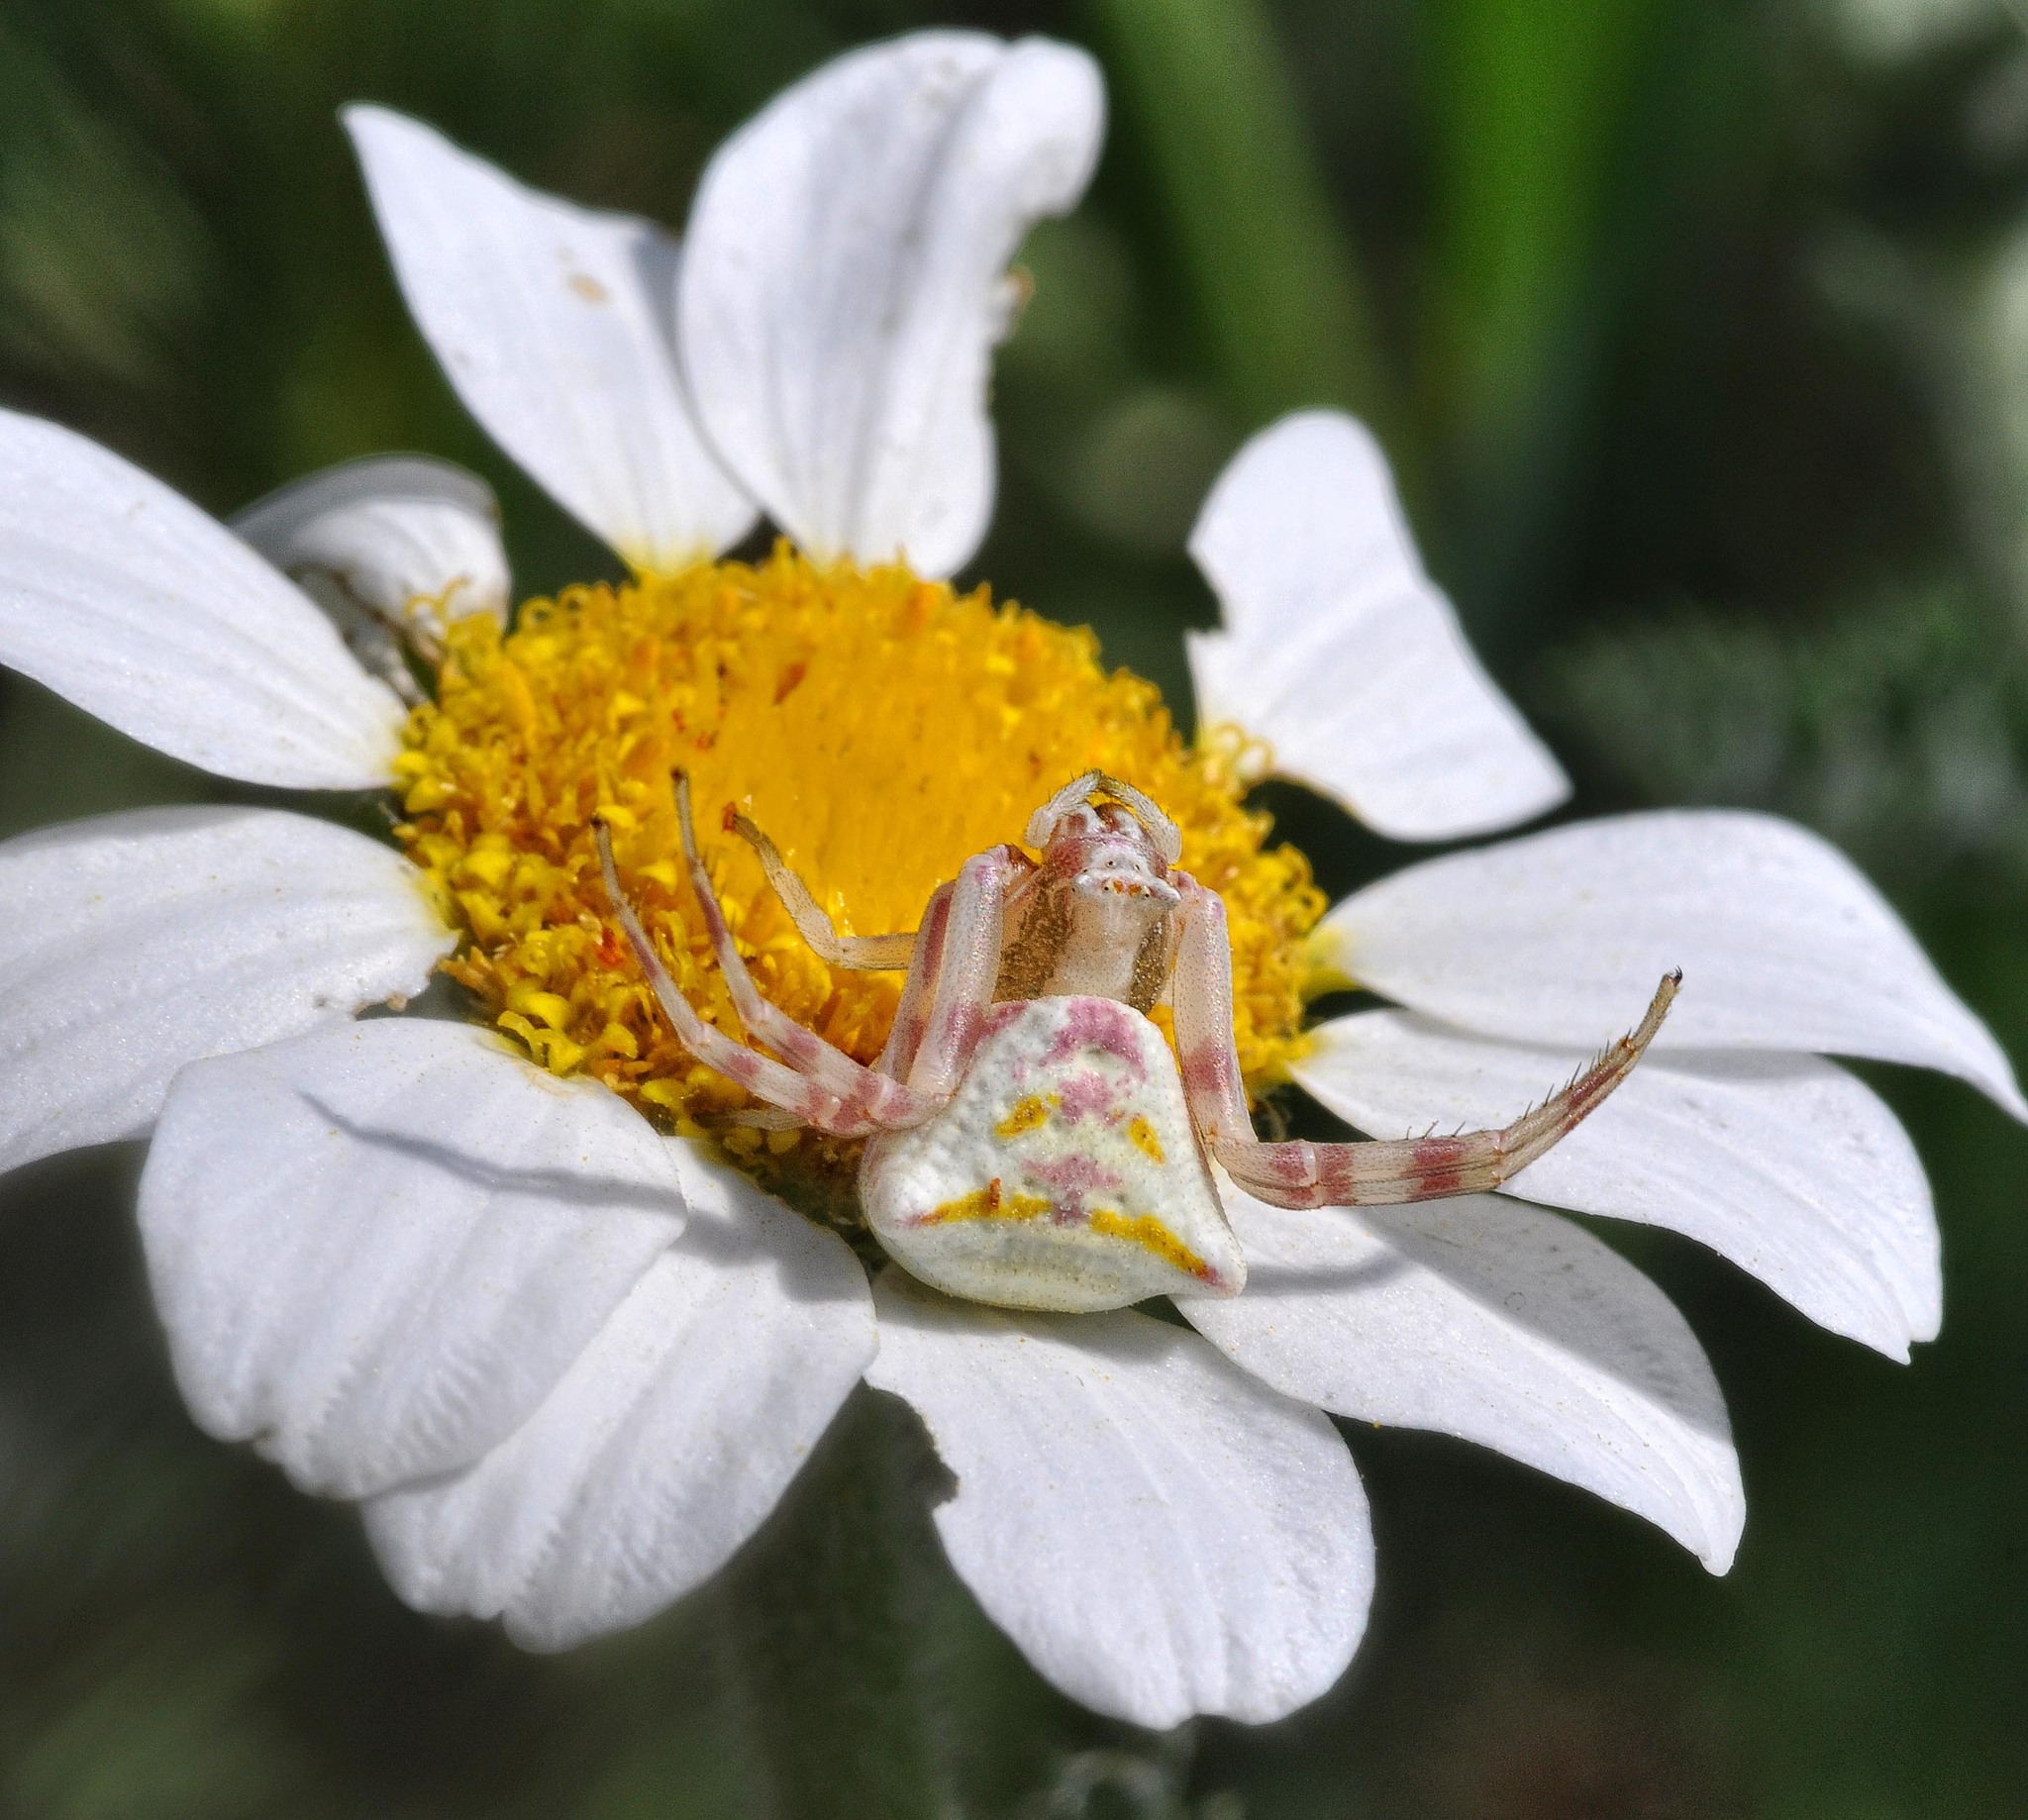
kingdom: Animalia
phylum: Arthropoda
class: Arachnida
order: Araneae
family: Thomisidae
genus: Thomisus
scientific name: Thomisus onustus
